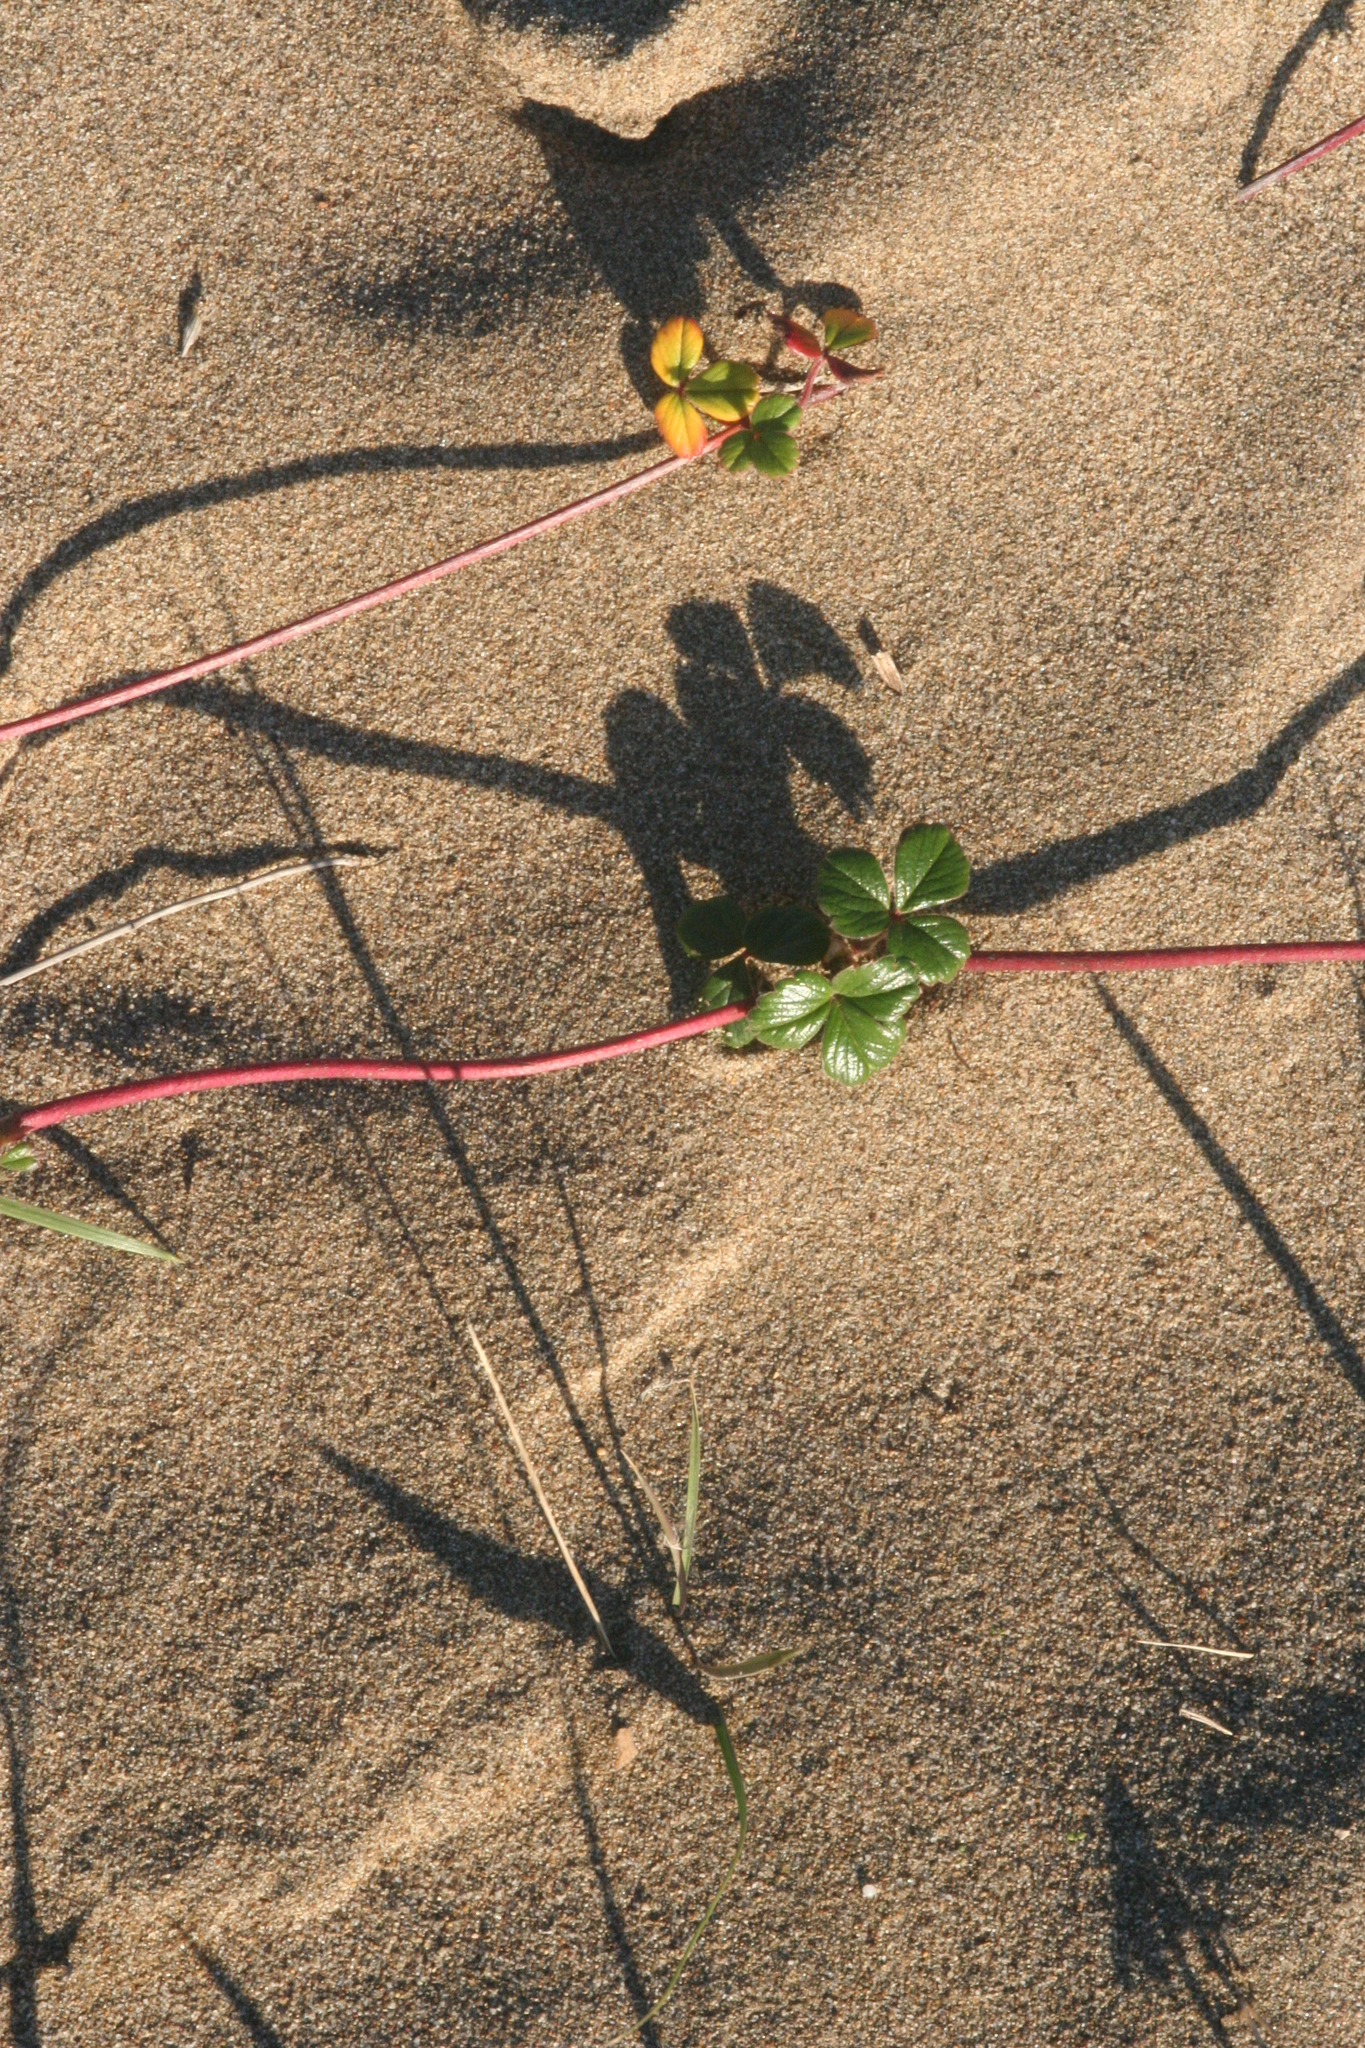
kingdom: Plantae
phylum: Tracheophyta
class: Magnoliopsida
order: Rosales
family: Rosaceae
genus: Fragaria
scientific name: Fragaria chiloensis
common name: Beach strawberry
